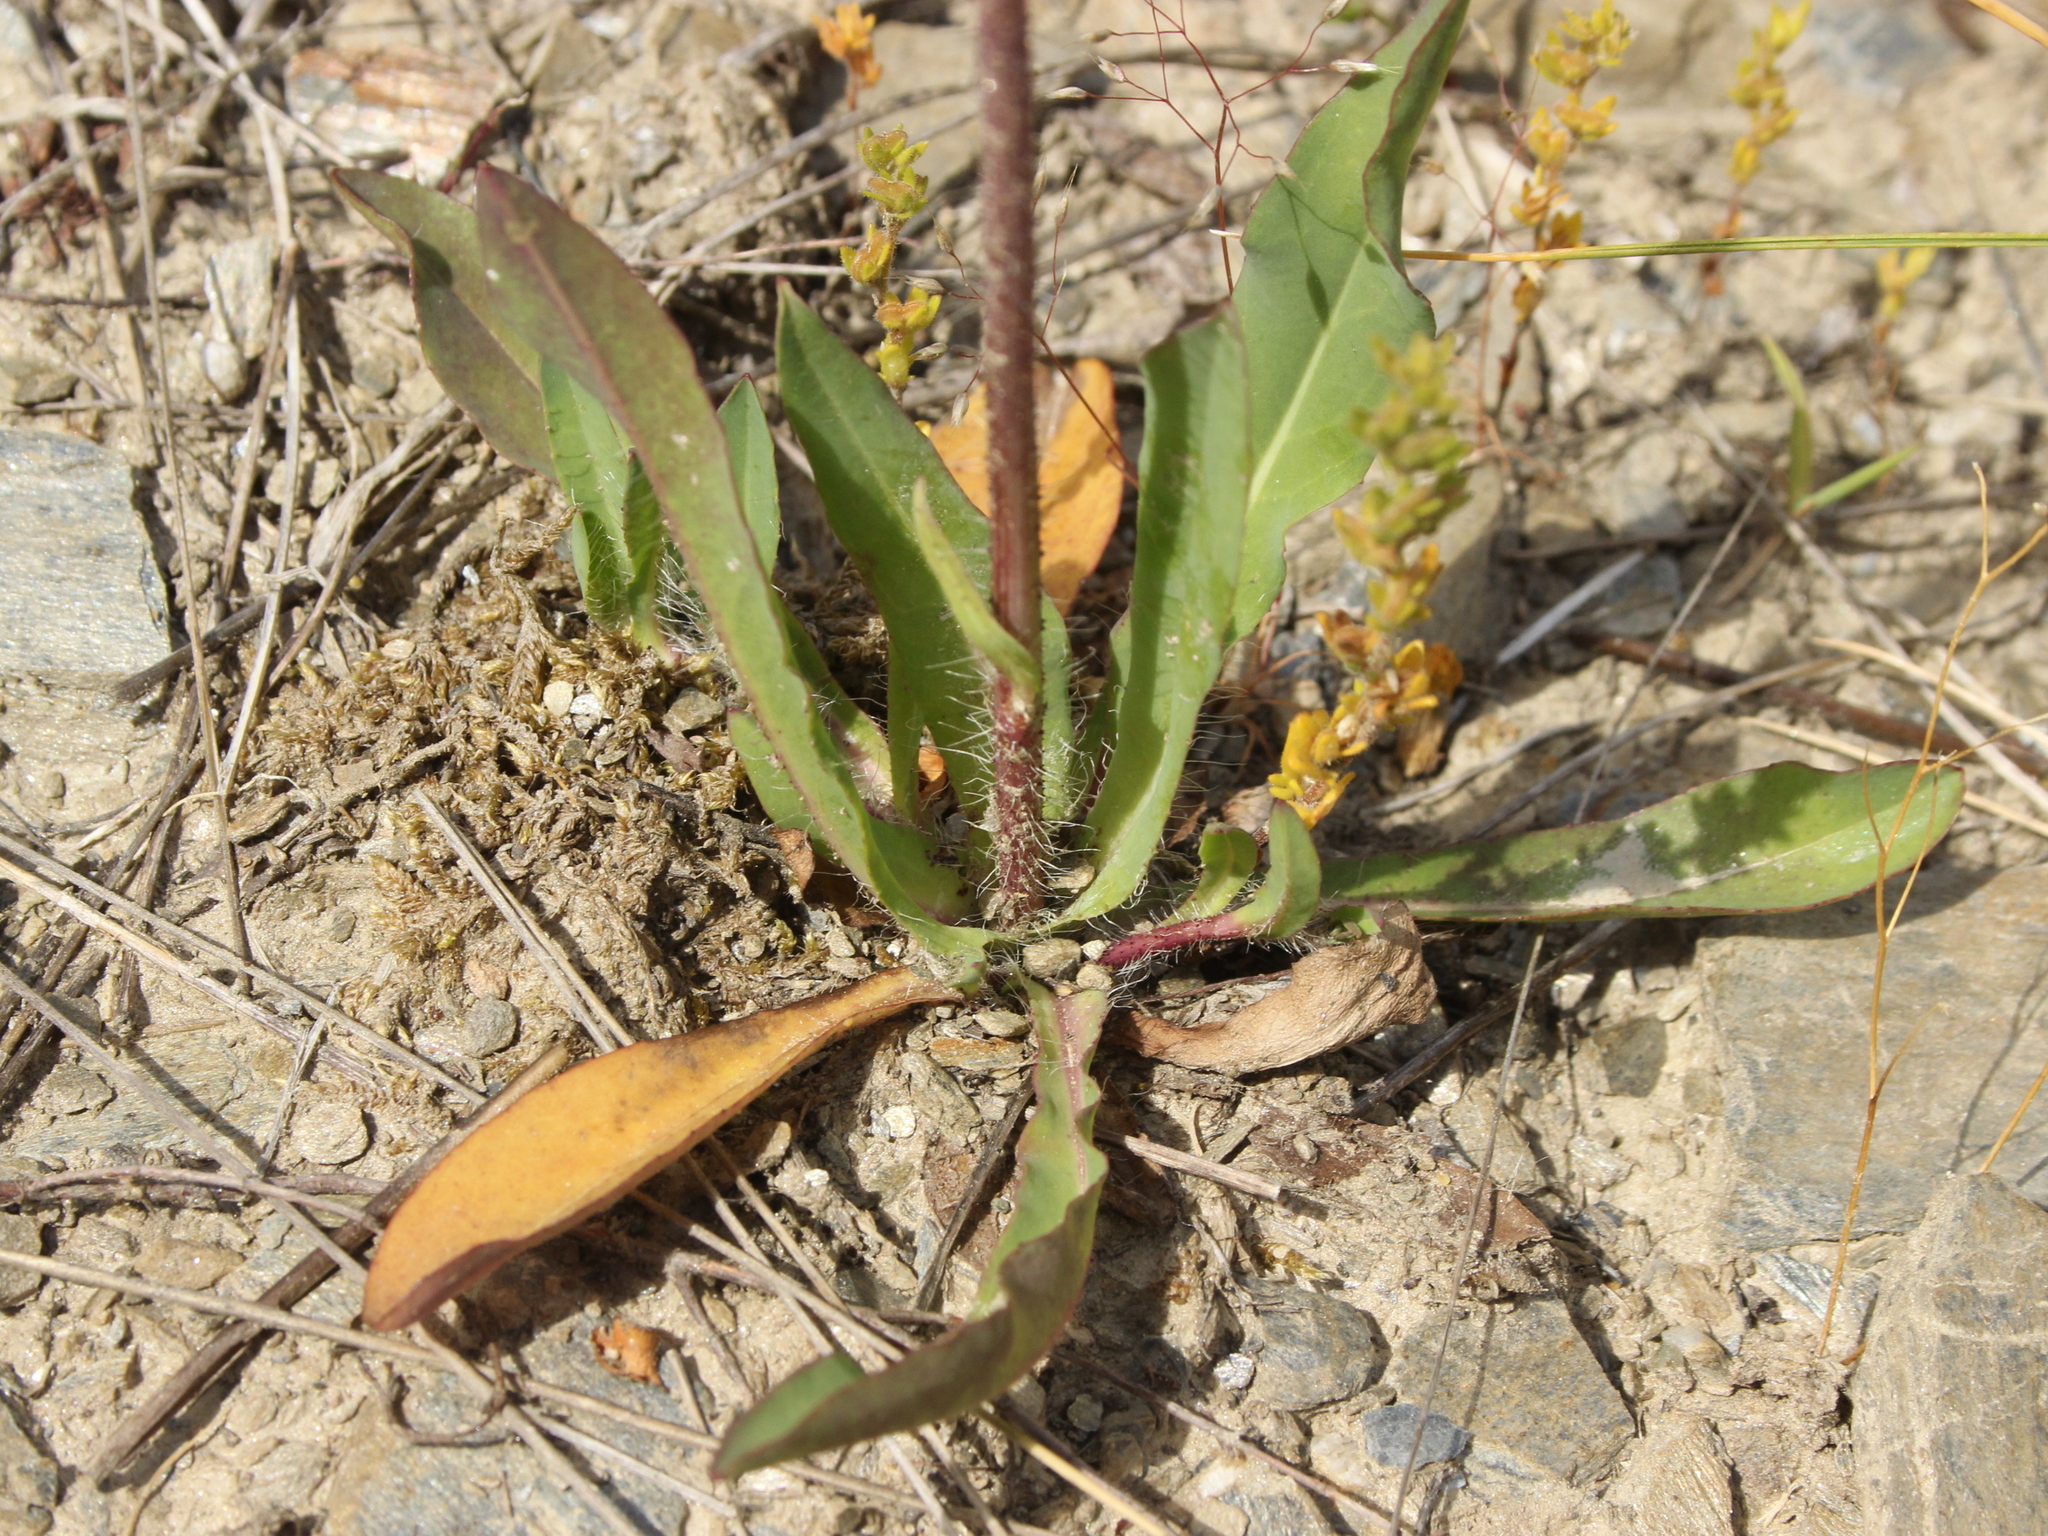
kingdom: Plantae
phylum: Tracheophyta
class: Magnoliopsida
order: Asterales
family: Asteraceae
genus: Pilosella
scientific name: Pilosella piloselloides
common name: Glaucous king-devil
